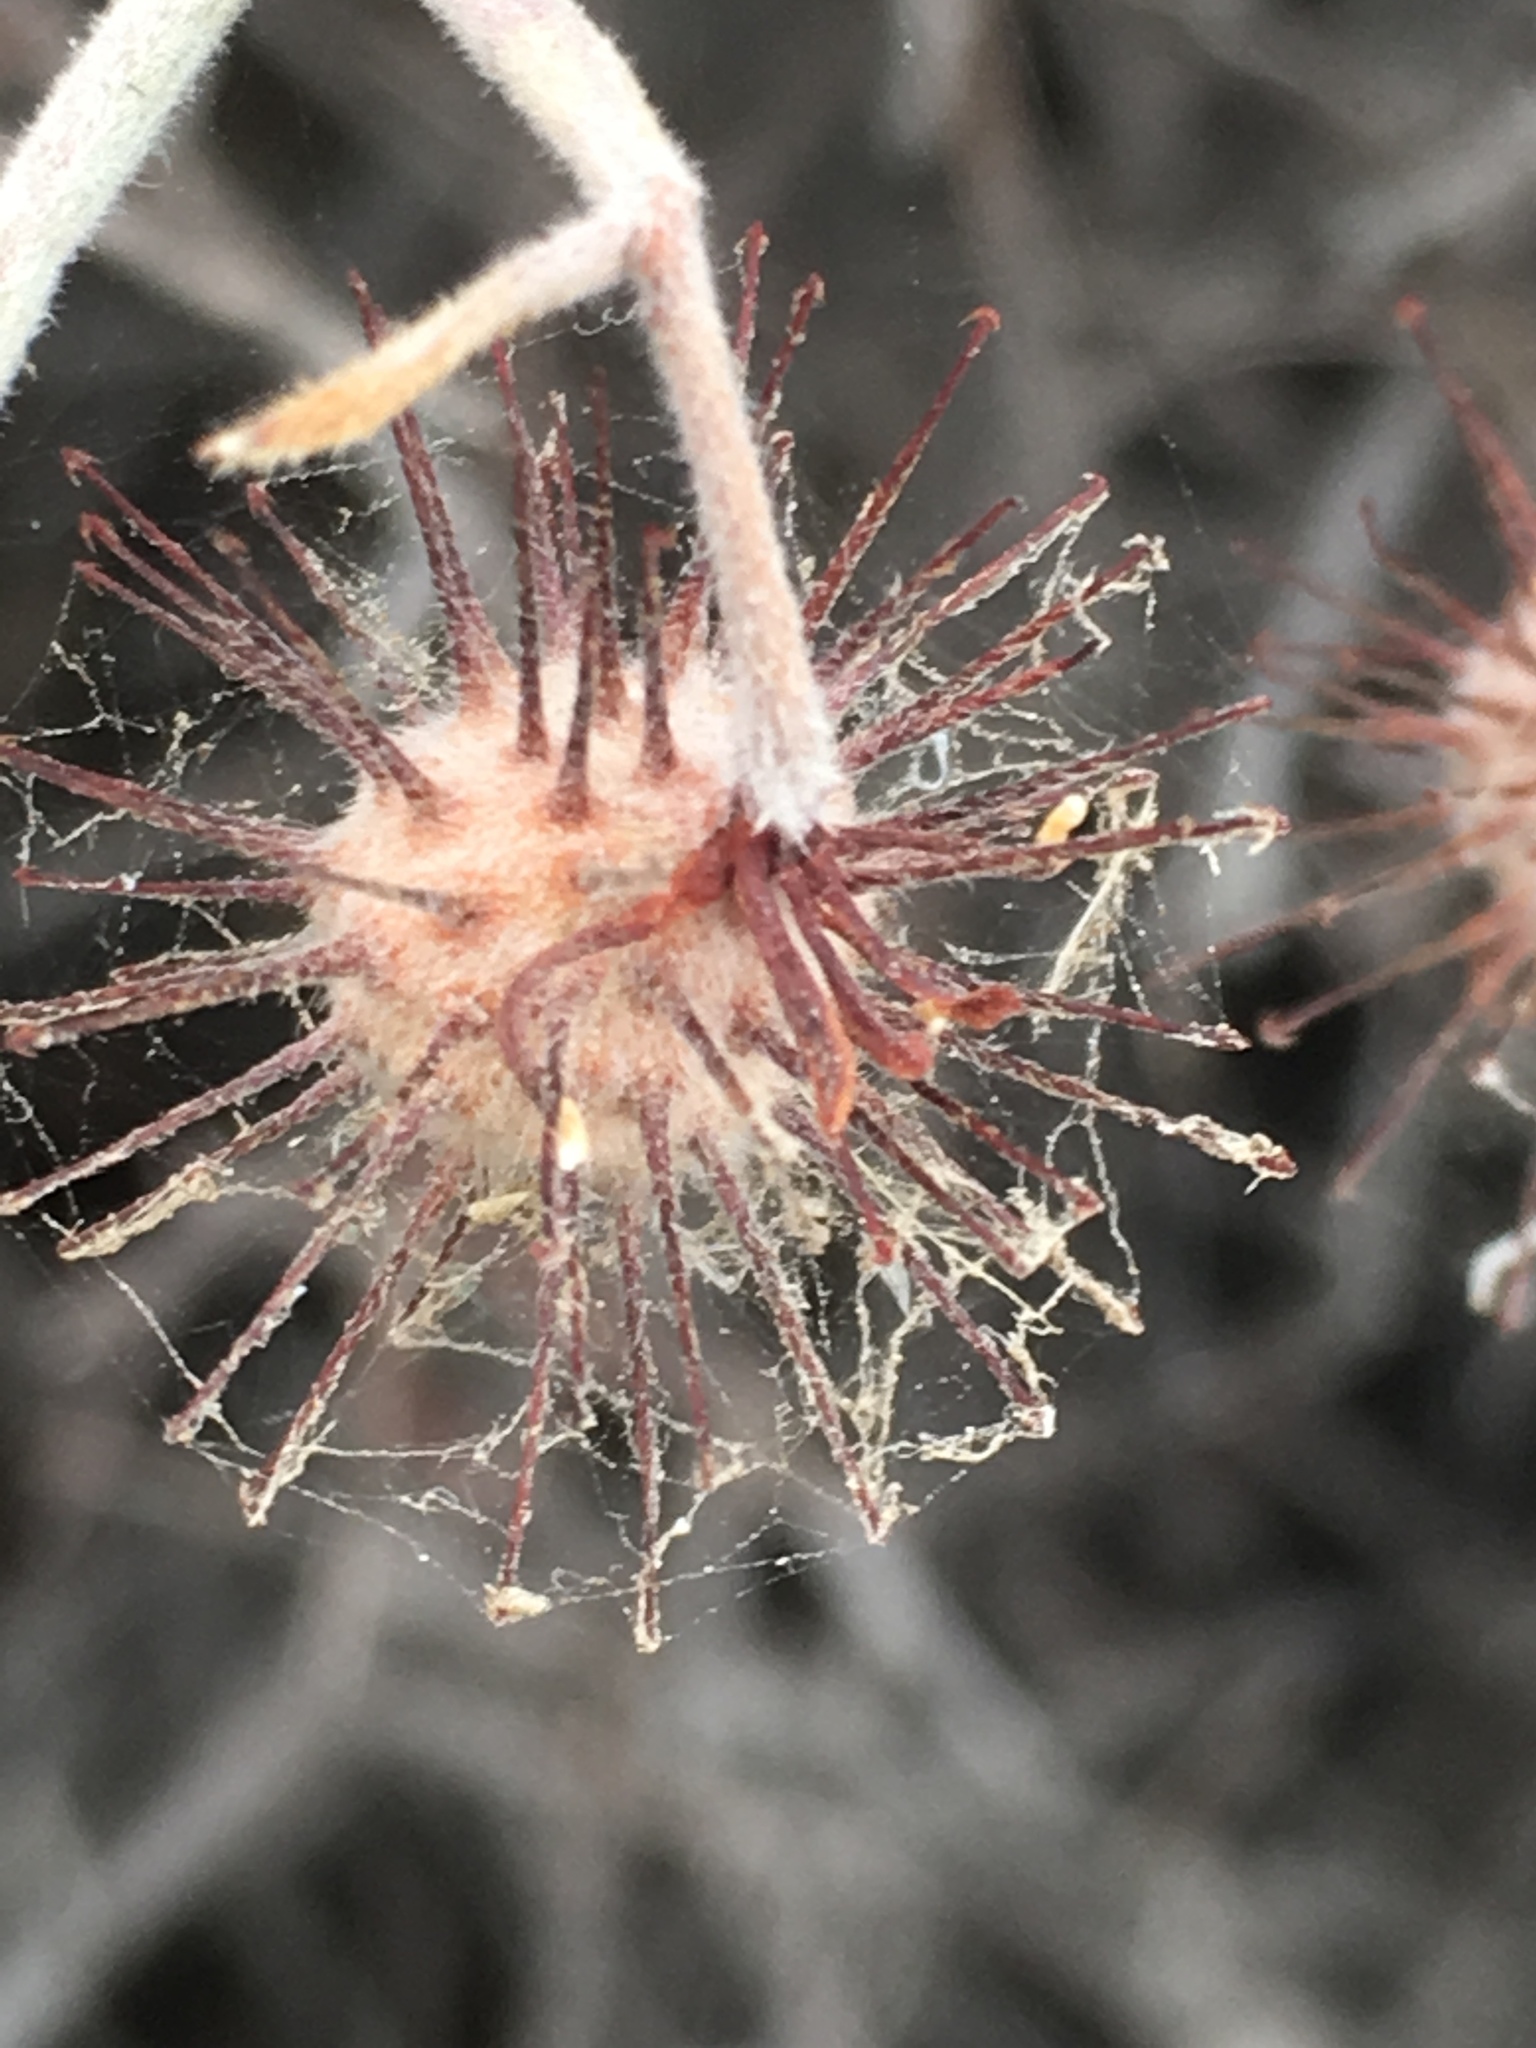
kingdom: Plantae
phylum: Tracheophyta
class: Magnoliopsida
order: Zygophyllales
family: Krameriaceae
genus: Krameria
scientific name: Krameria bicolor
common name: White ratany
